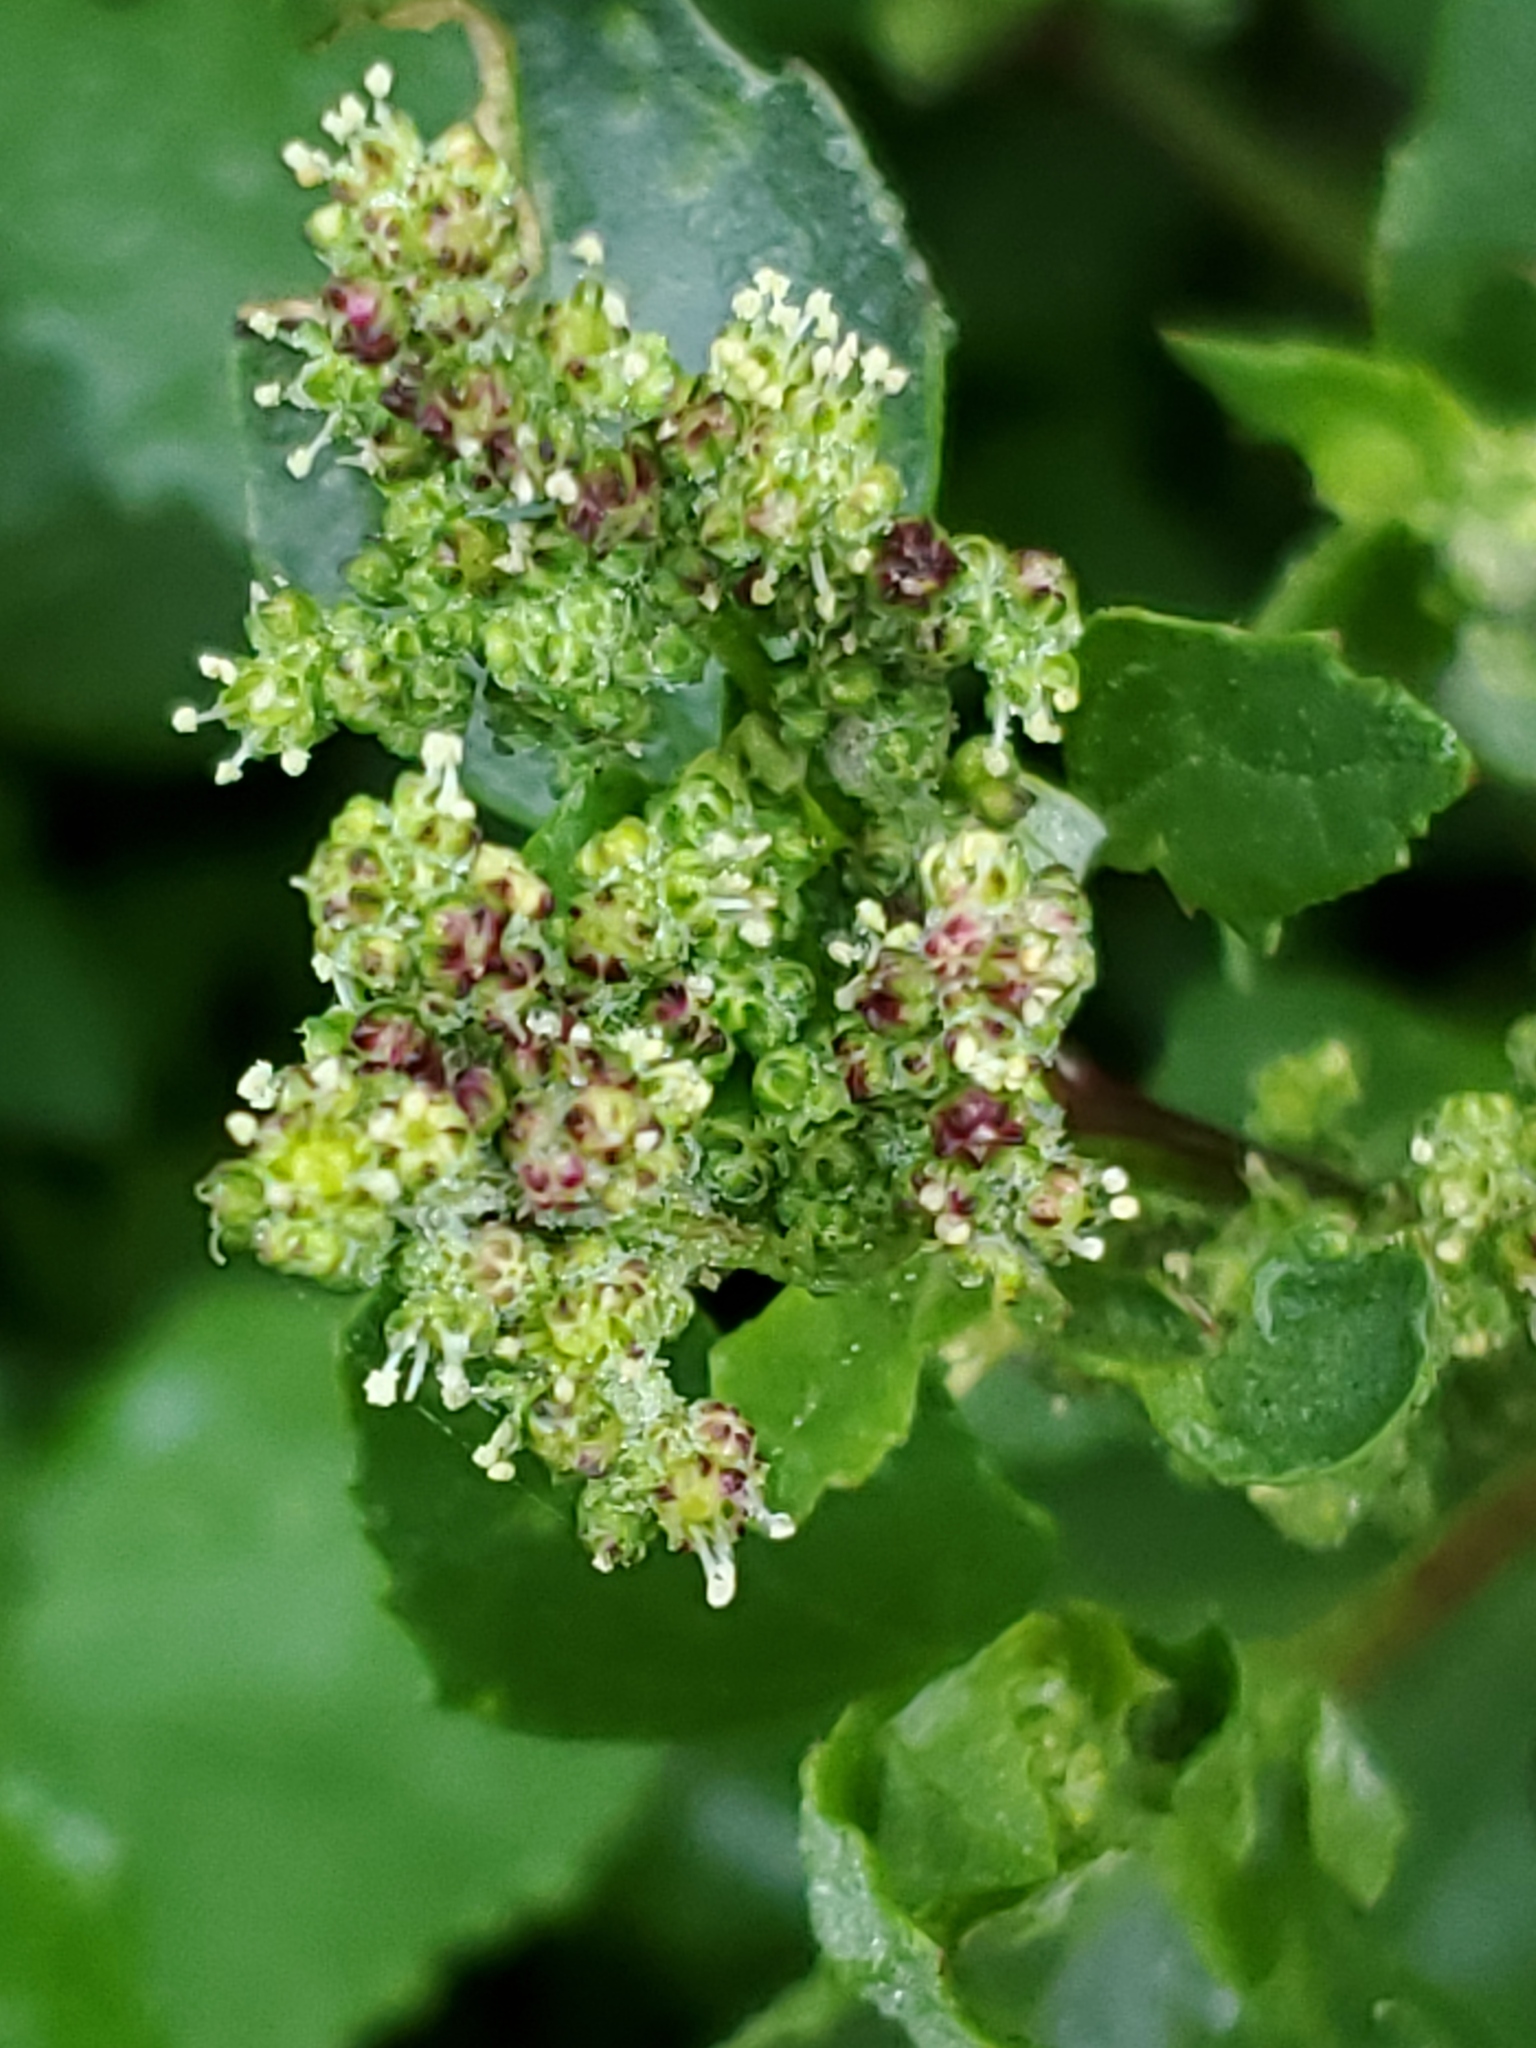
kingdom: Plantae
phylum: Tracheophyta
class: Magnoliopsida
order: Caryophyllales
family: Amaranthaceae
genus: Chenopodiastrum
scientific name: Chenopodiastrum murale
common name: Sowbane
